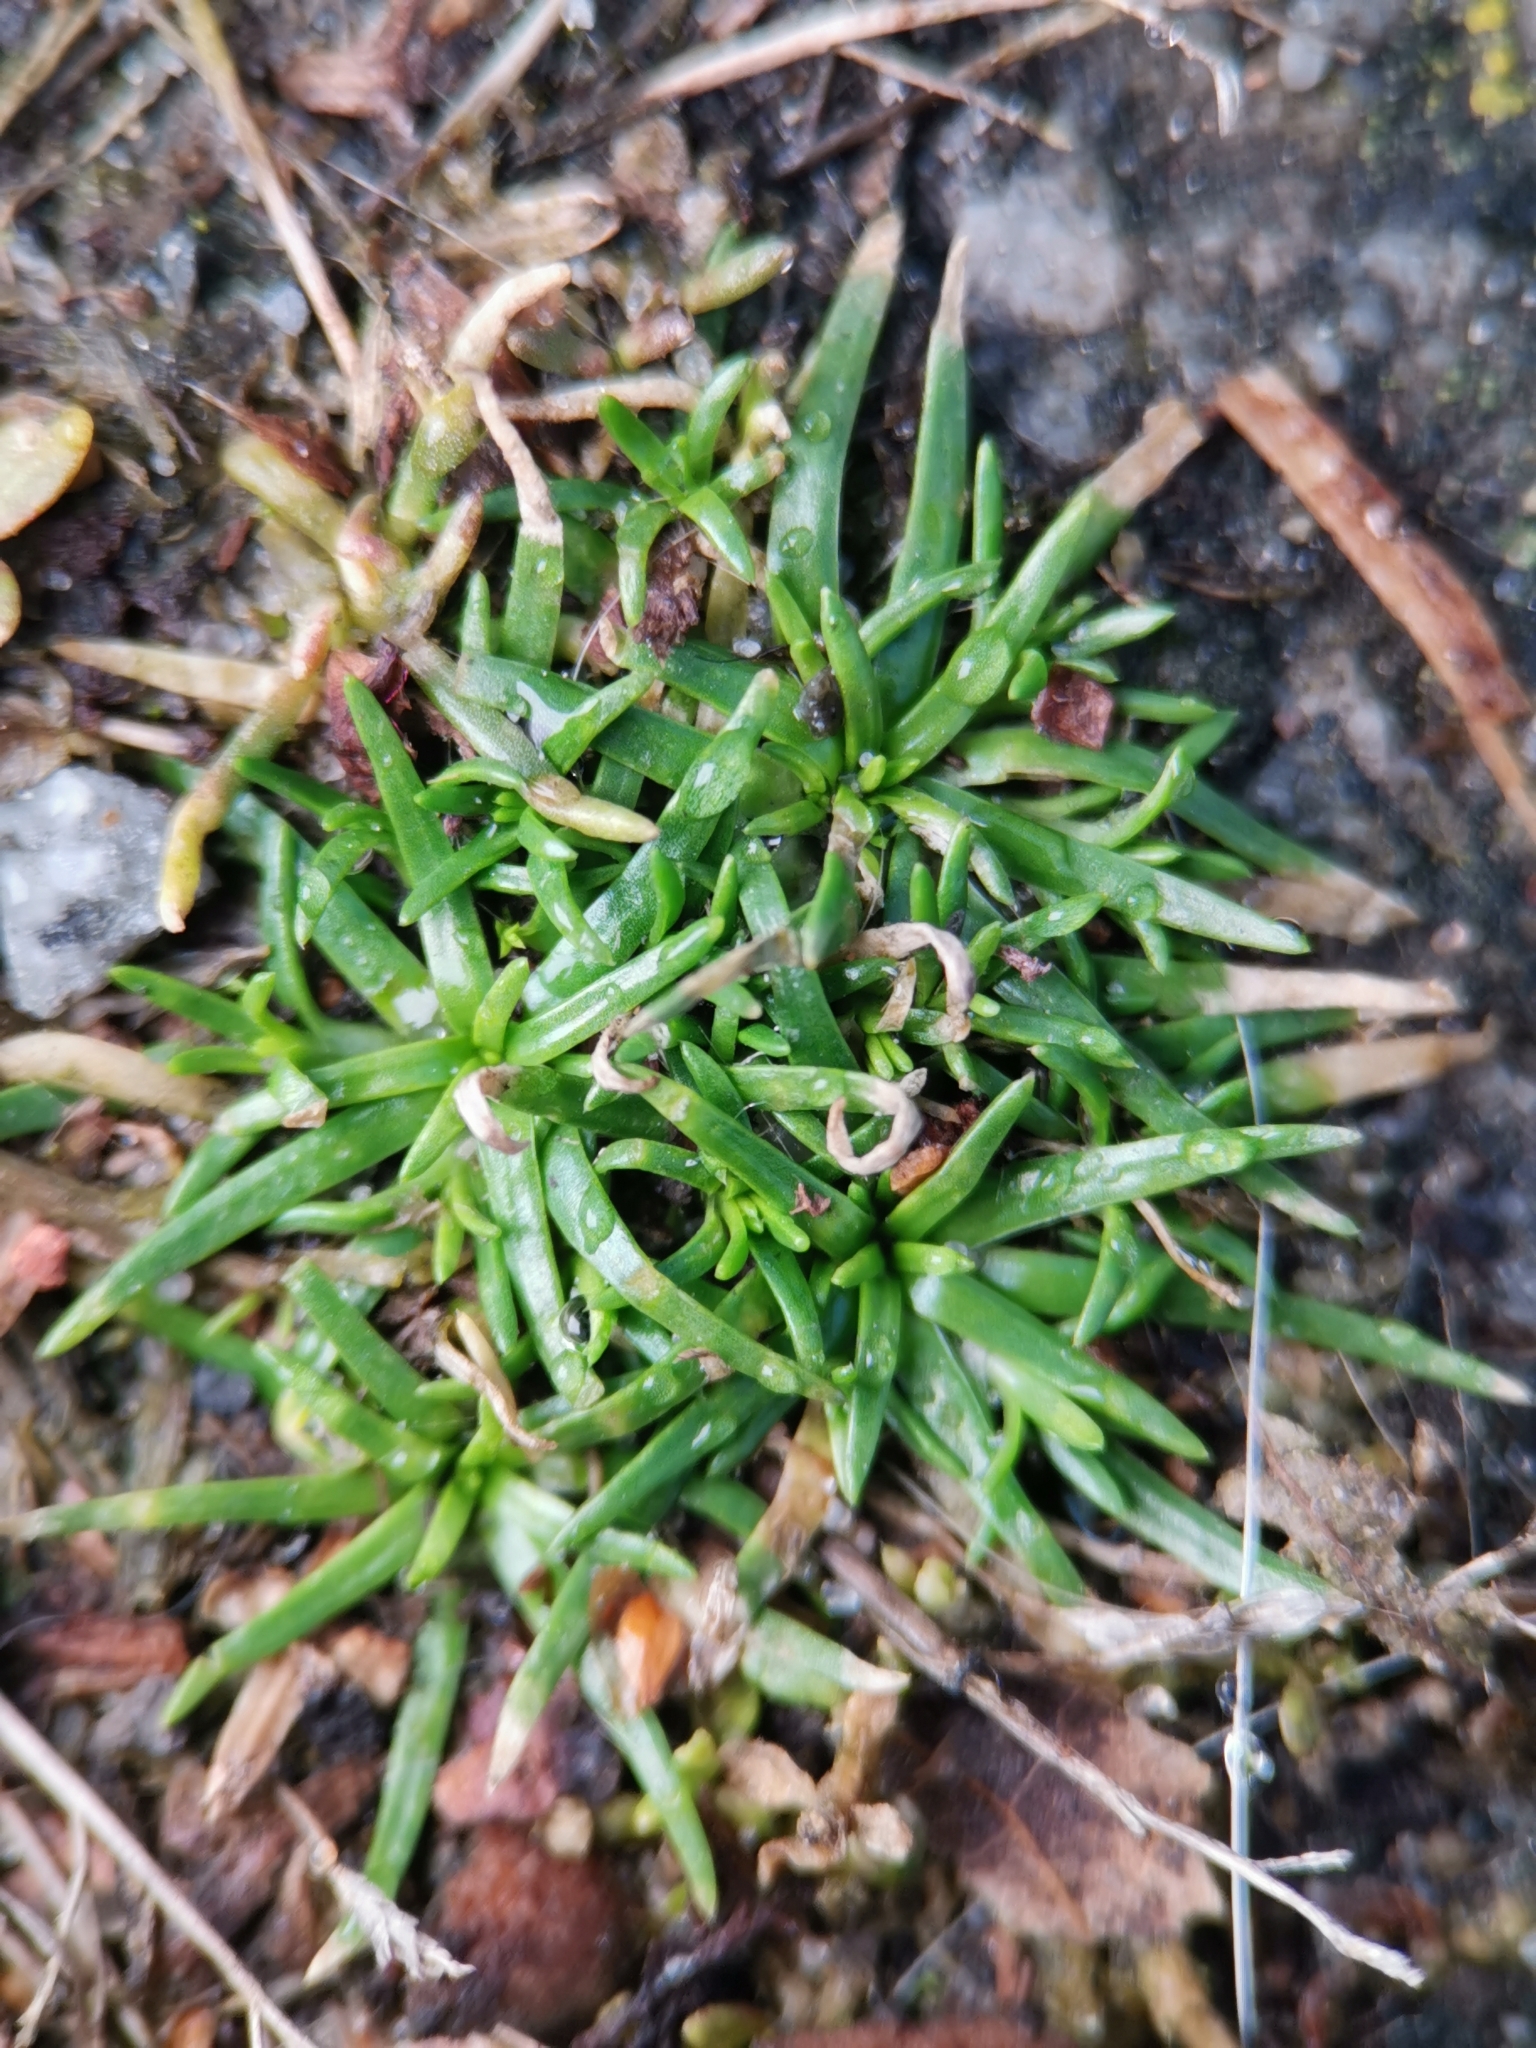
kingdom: Plantae
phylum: Tracheophyta
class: Magnoliopsida
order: Caryophyllales
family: Caryophyllaceae
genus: Sagina
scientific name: Sagina procumbens
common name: Procumbent pearlwort
